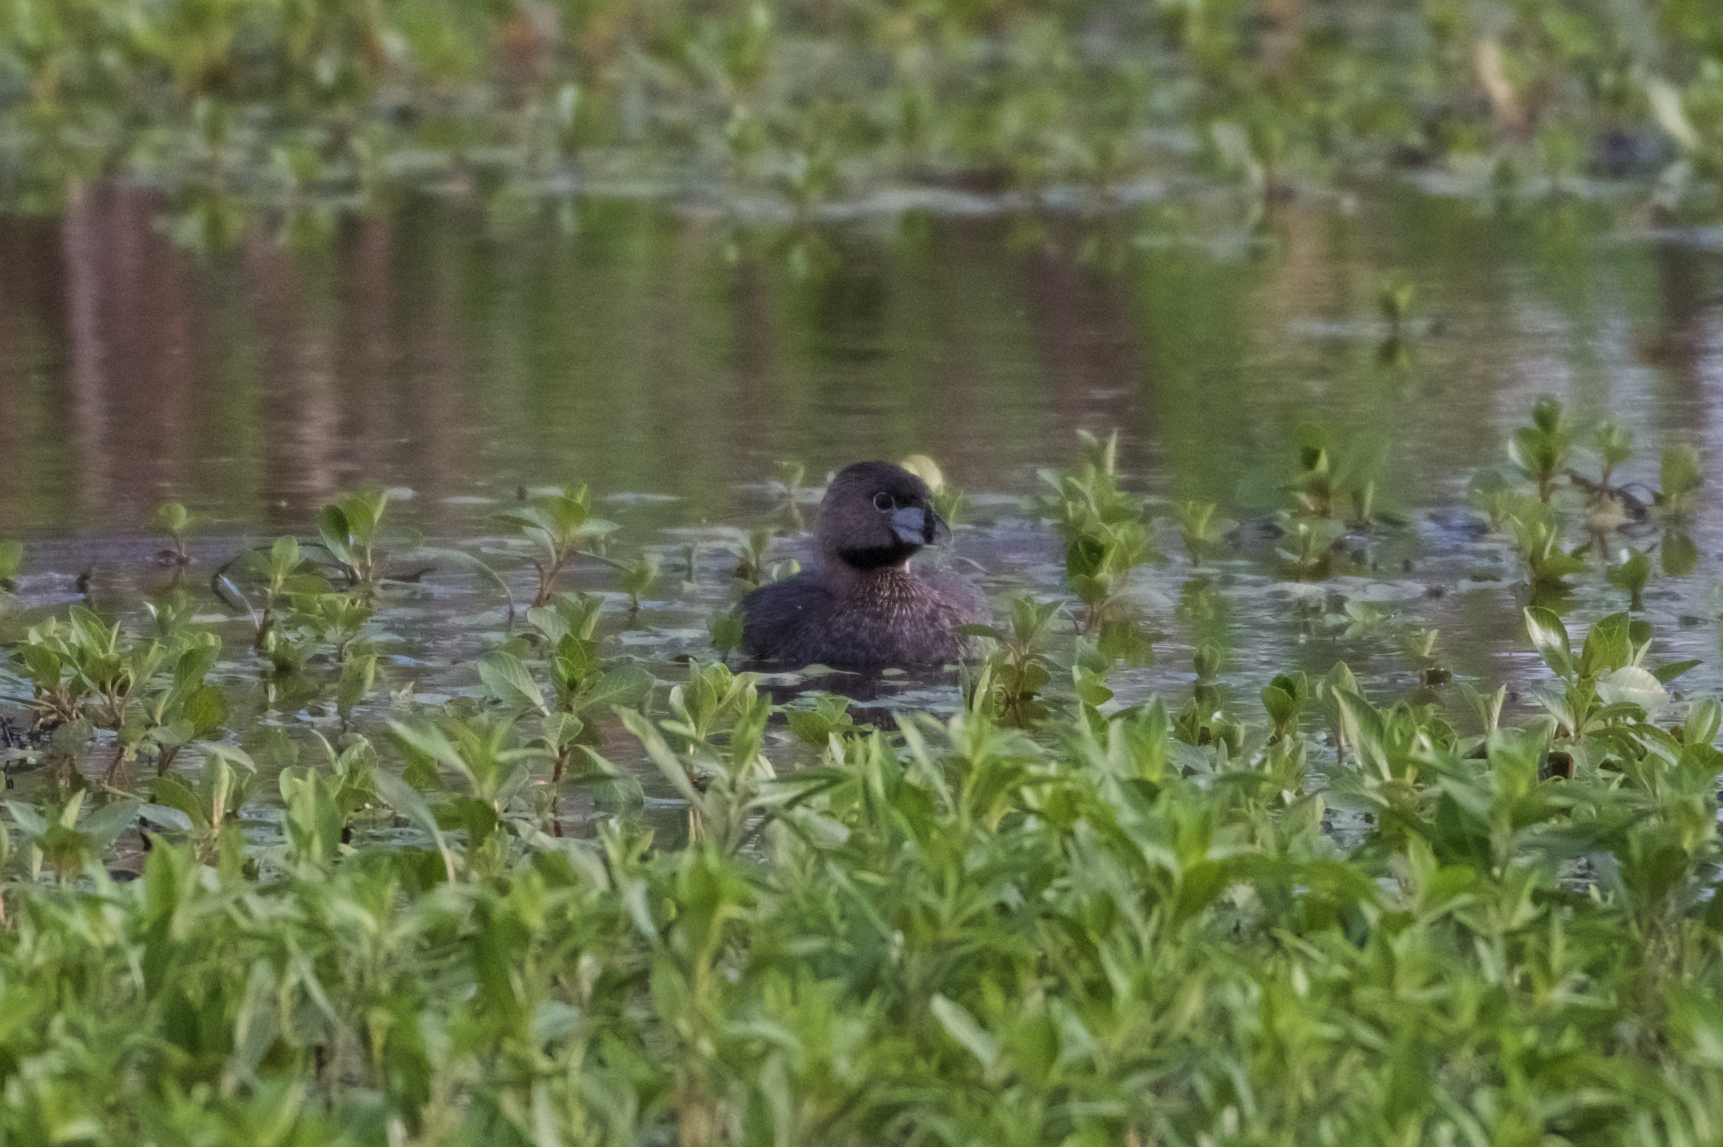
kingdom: Animalia
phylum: Chordata
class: Aves
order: Podicipediformes
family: Podicipedidae
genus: Podilymbus
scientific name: Podilymbus podiceps
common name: Pied-billed grebe
